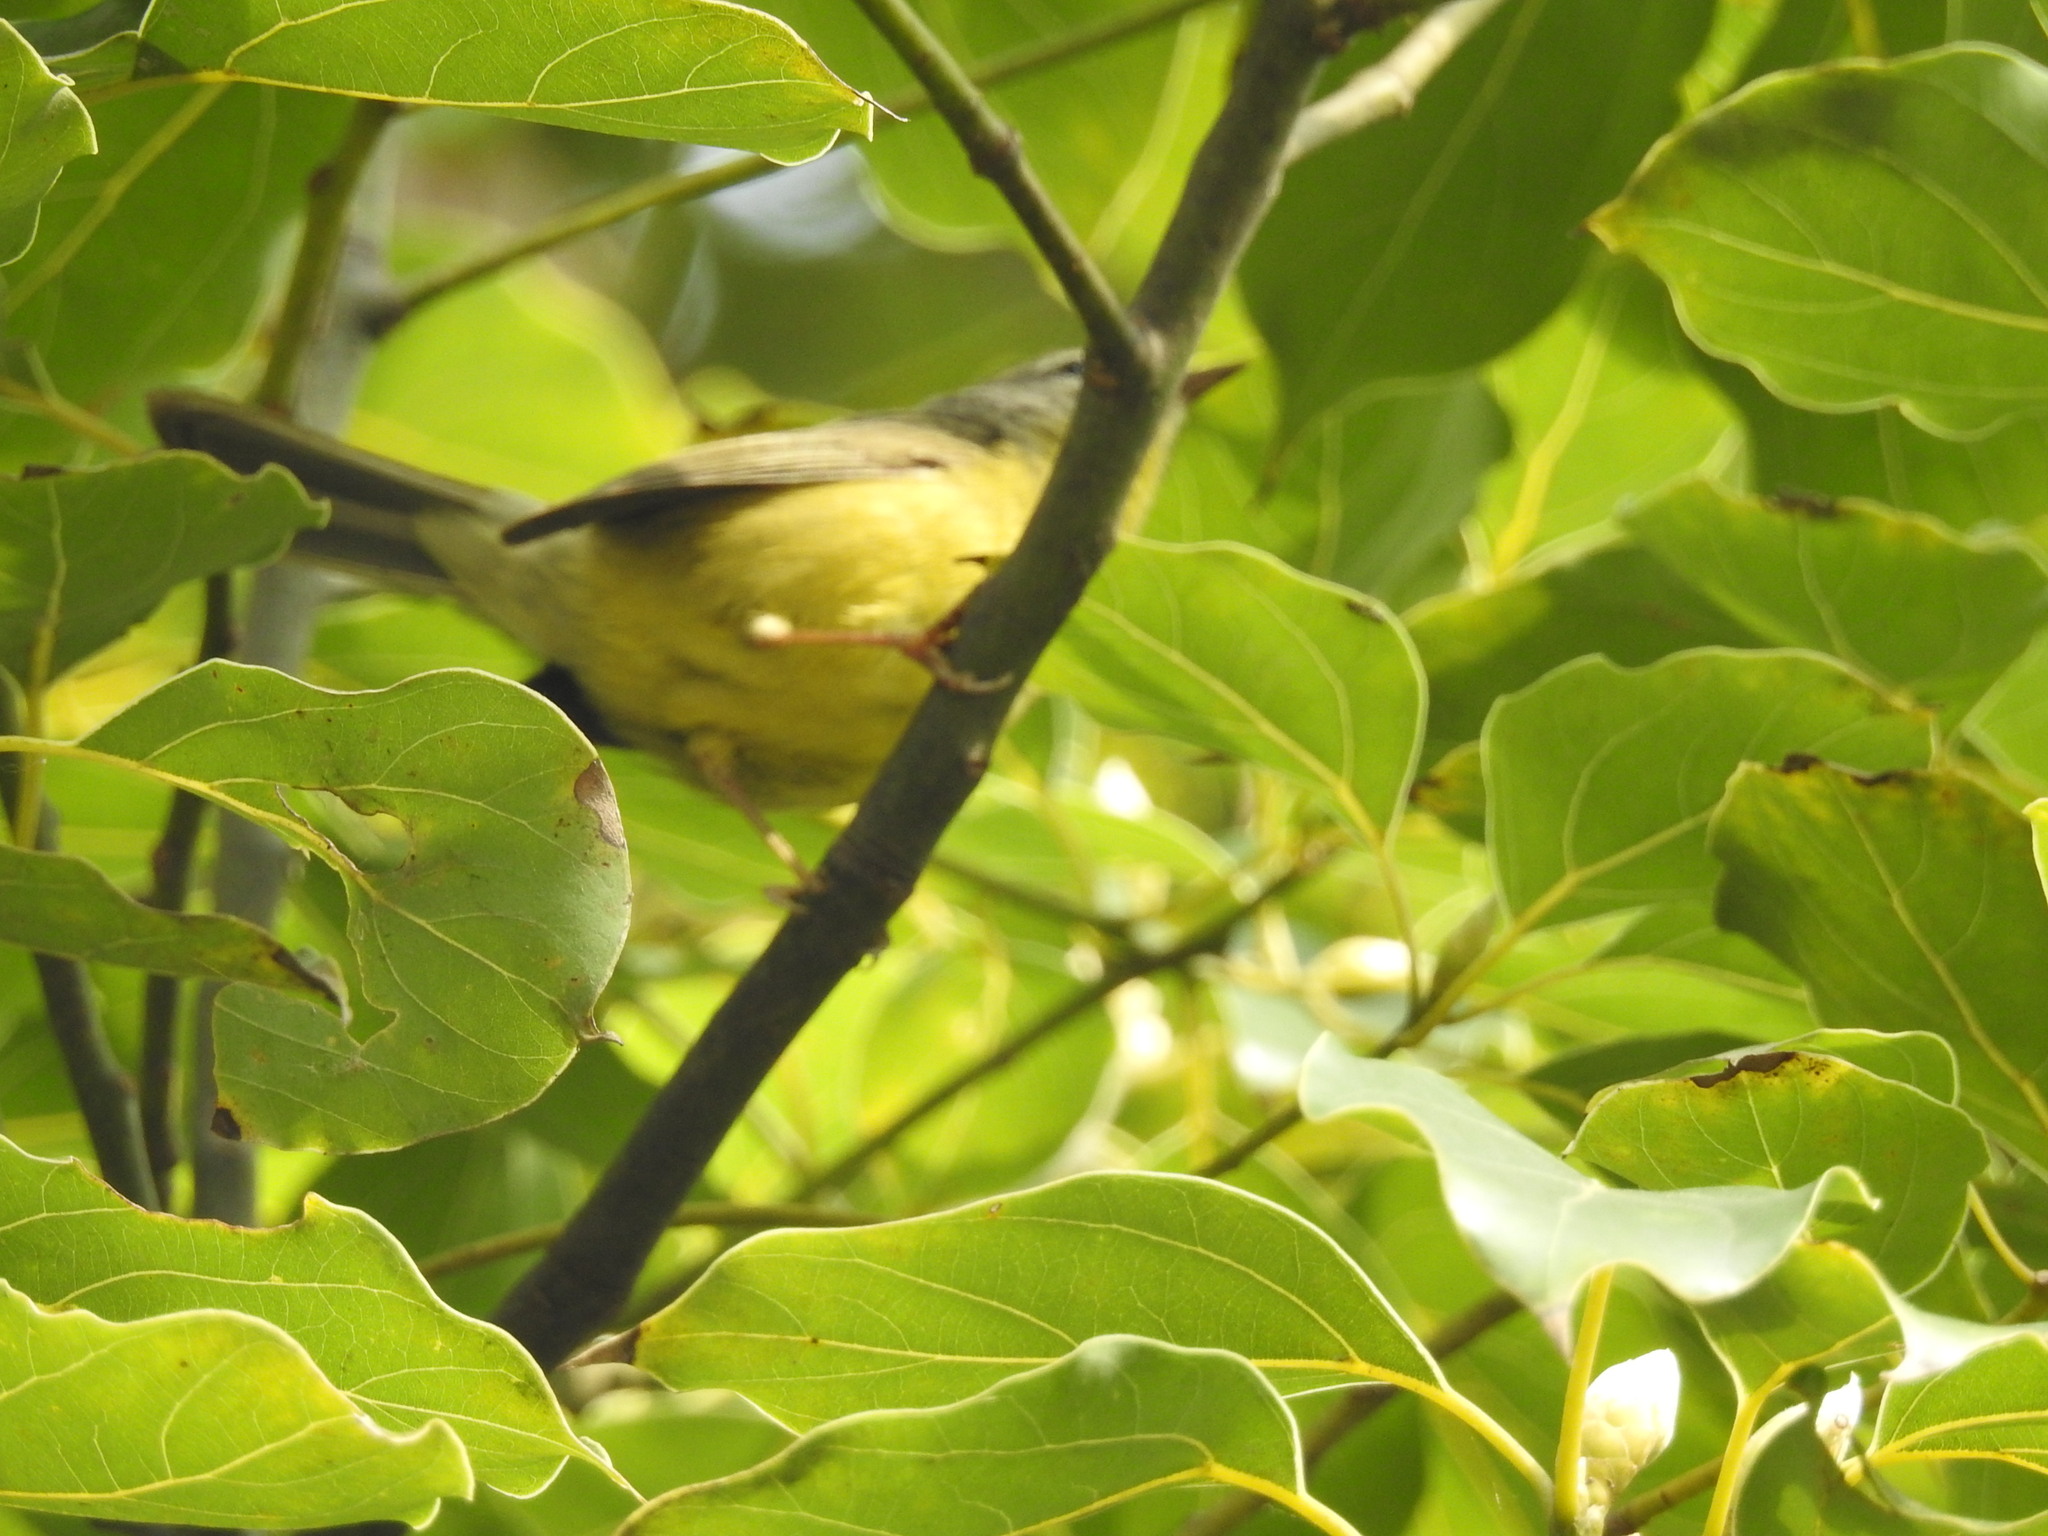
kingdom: Animalia
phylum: Chordata
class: Aves
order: Passeriformes
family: Parulidae
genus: Basileuterus
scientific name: Basileuterus culicivorus
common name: Golden-crowned warbler
